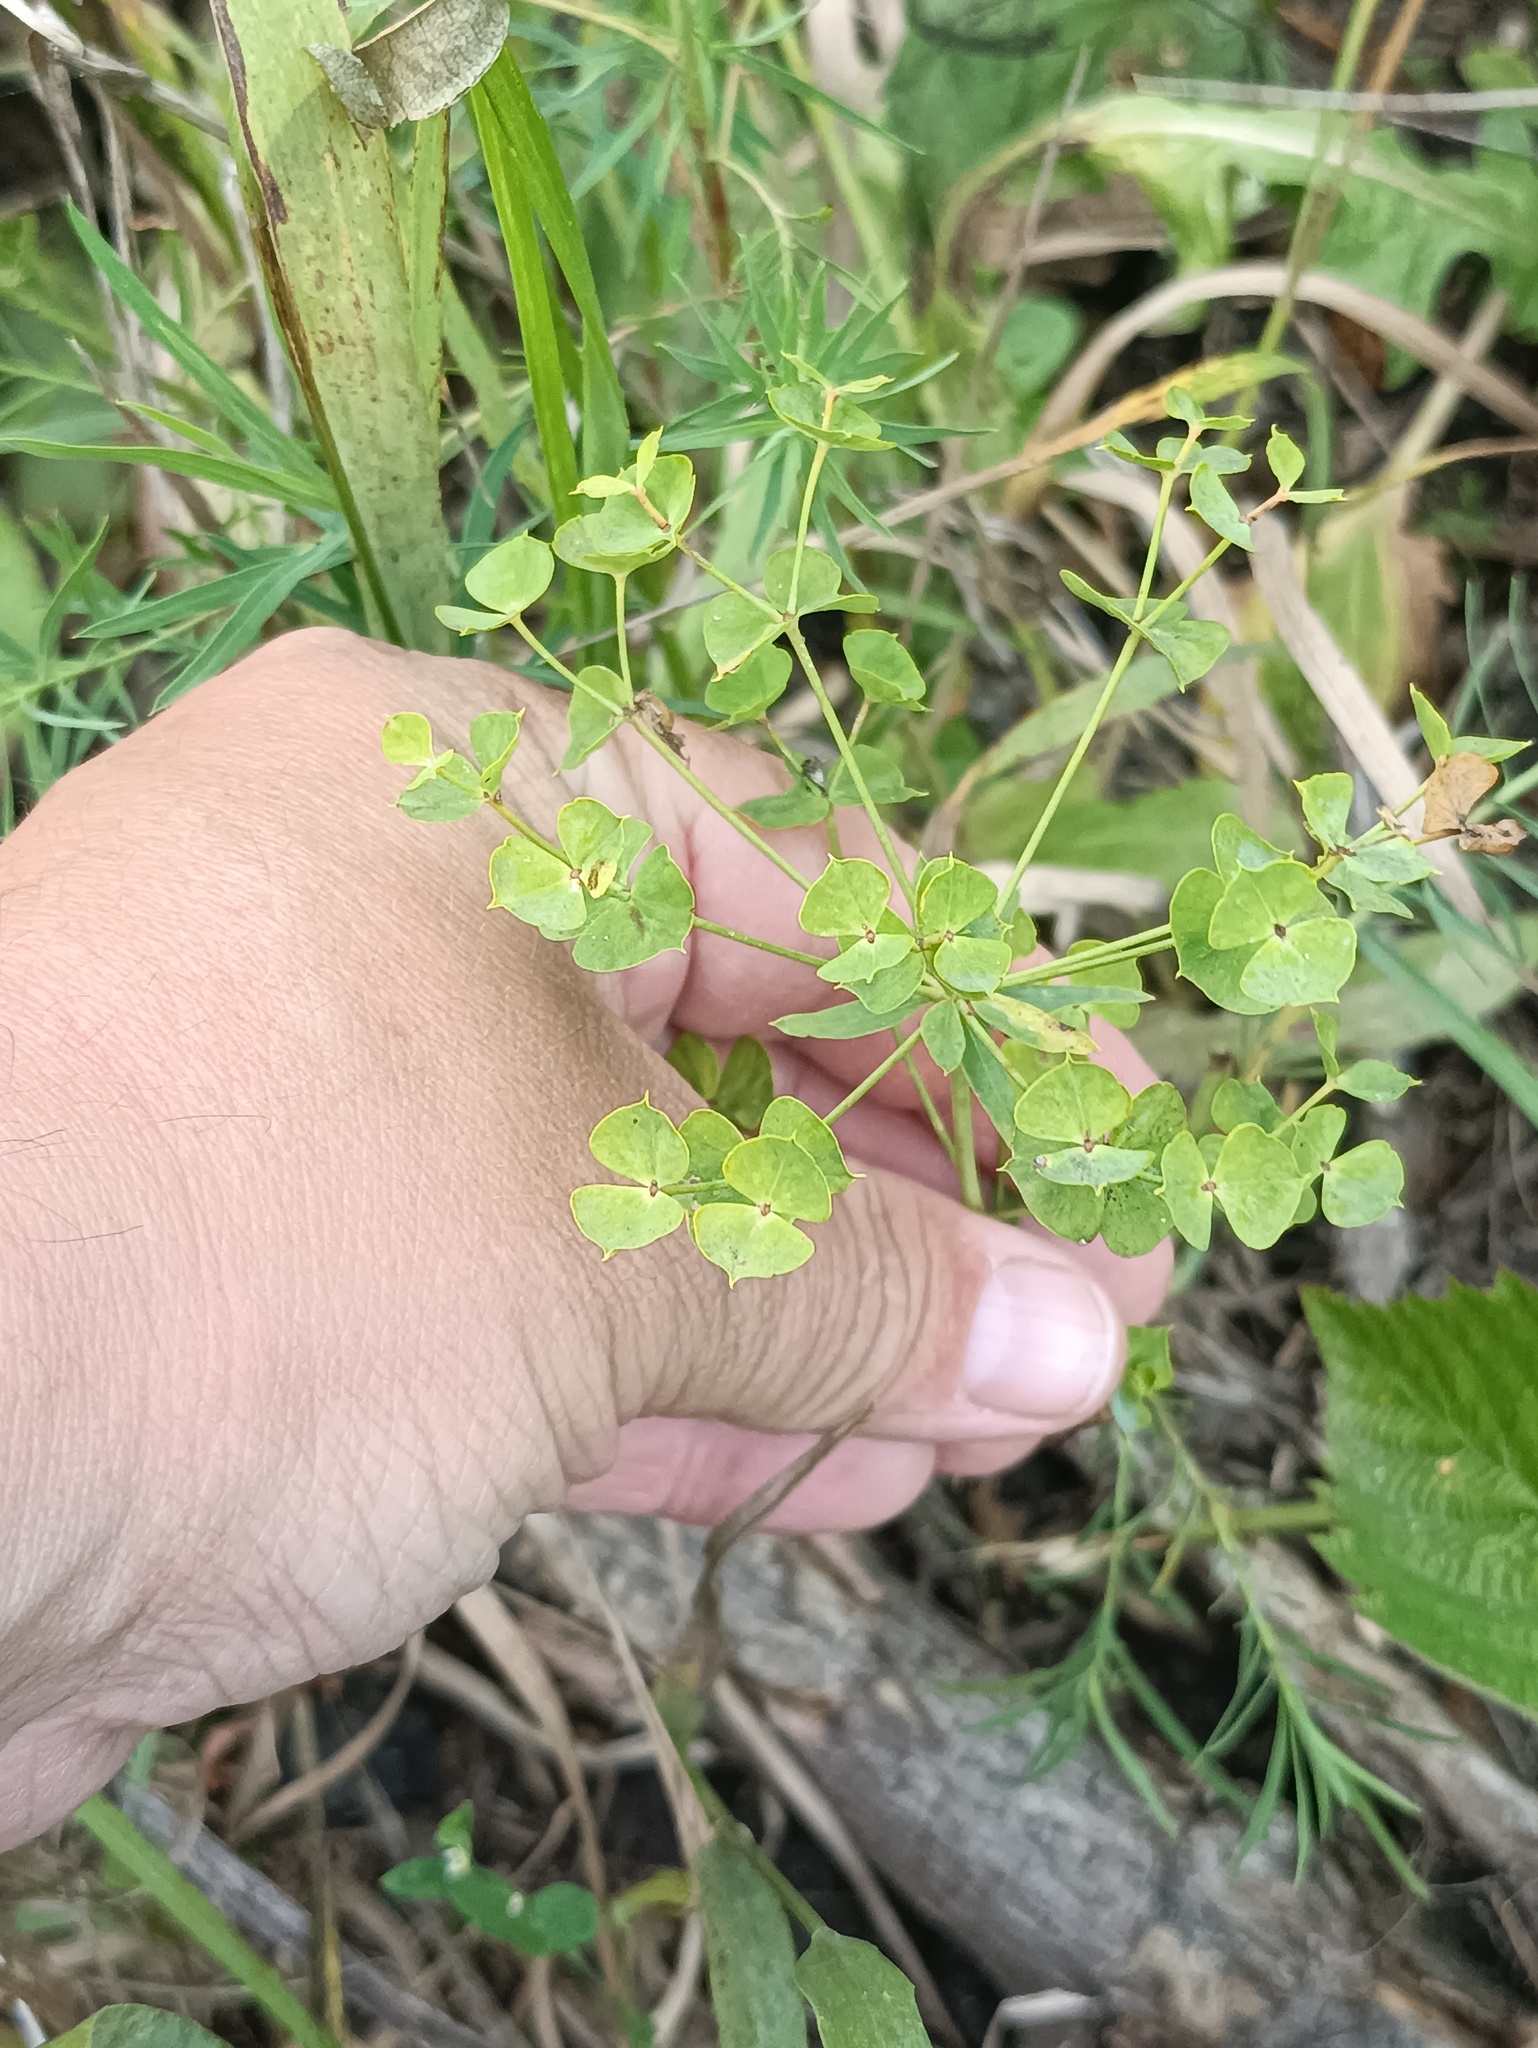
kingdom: Plantae
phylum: Tracheophyta
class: Magnoliopsida
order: Malpighiales
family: Euphorbiaceae
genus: Euphorbia
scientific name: Euphorbia virgata
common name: Leafy spurge
